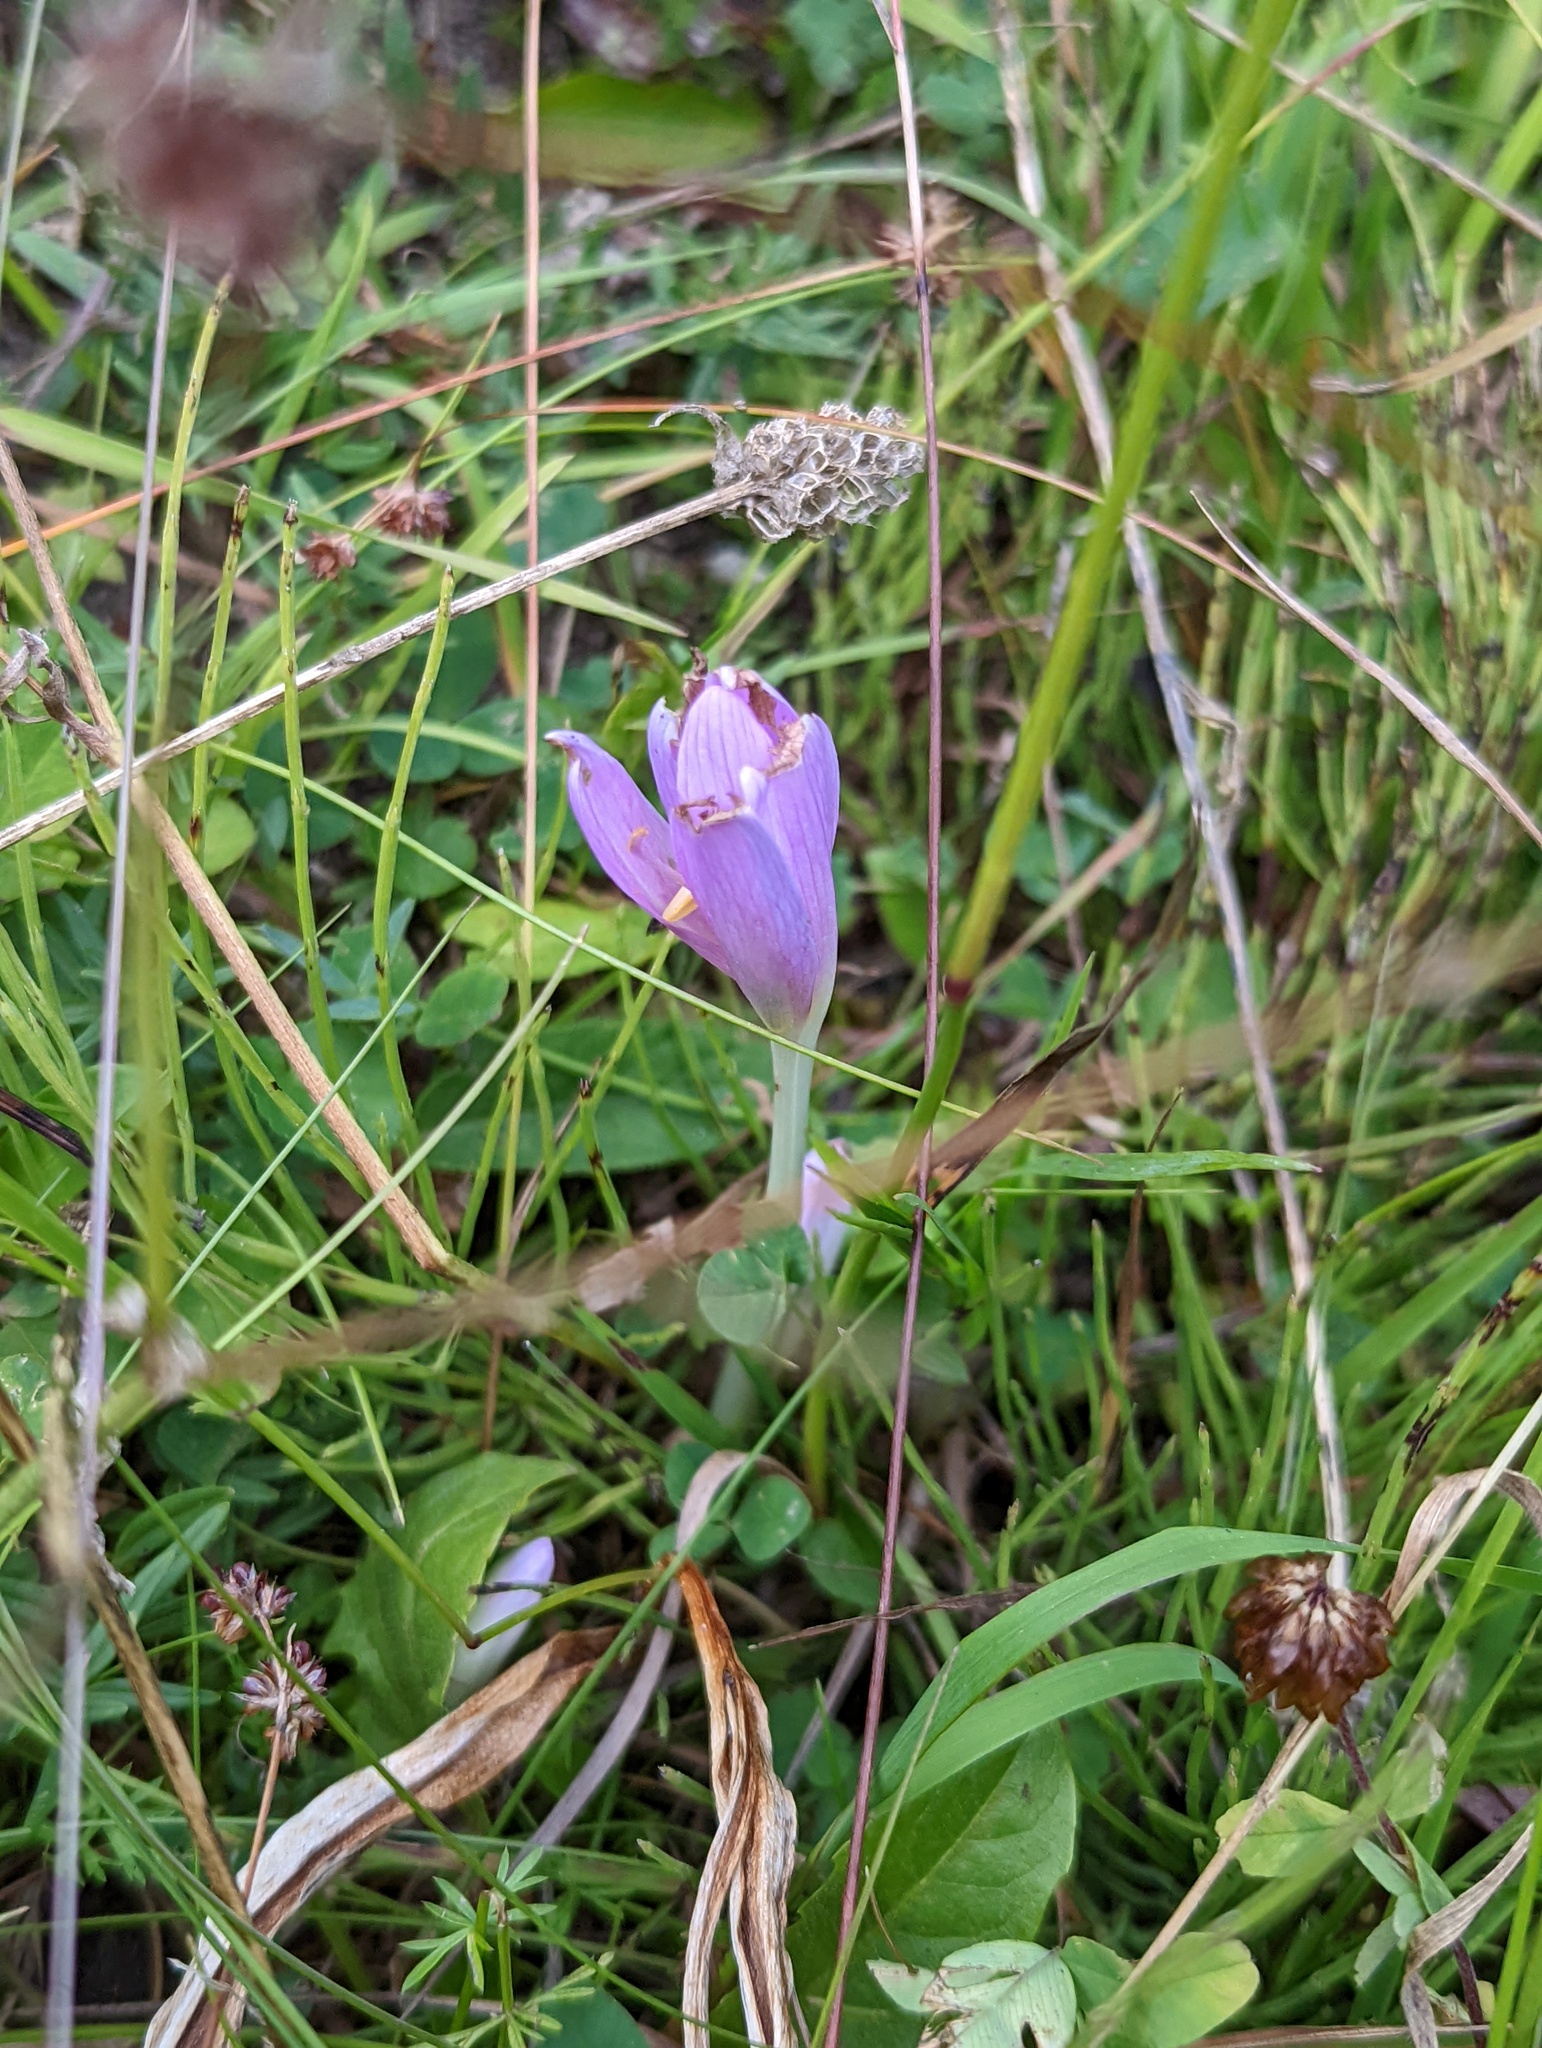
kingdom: Plantae
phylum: Tracheophyta
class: Liliopsida
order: Liliales
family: Colchicaceae
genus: Colchicum
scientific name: Colchicum autumnale
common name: Autumn crocus
